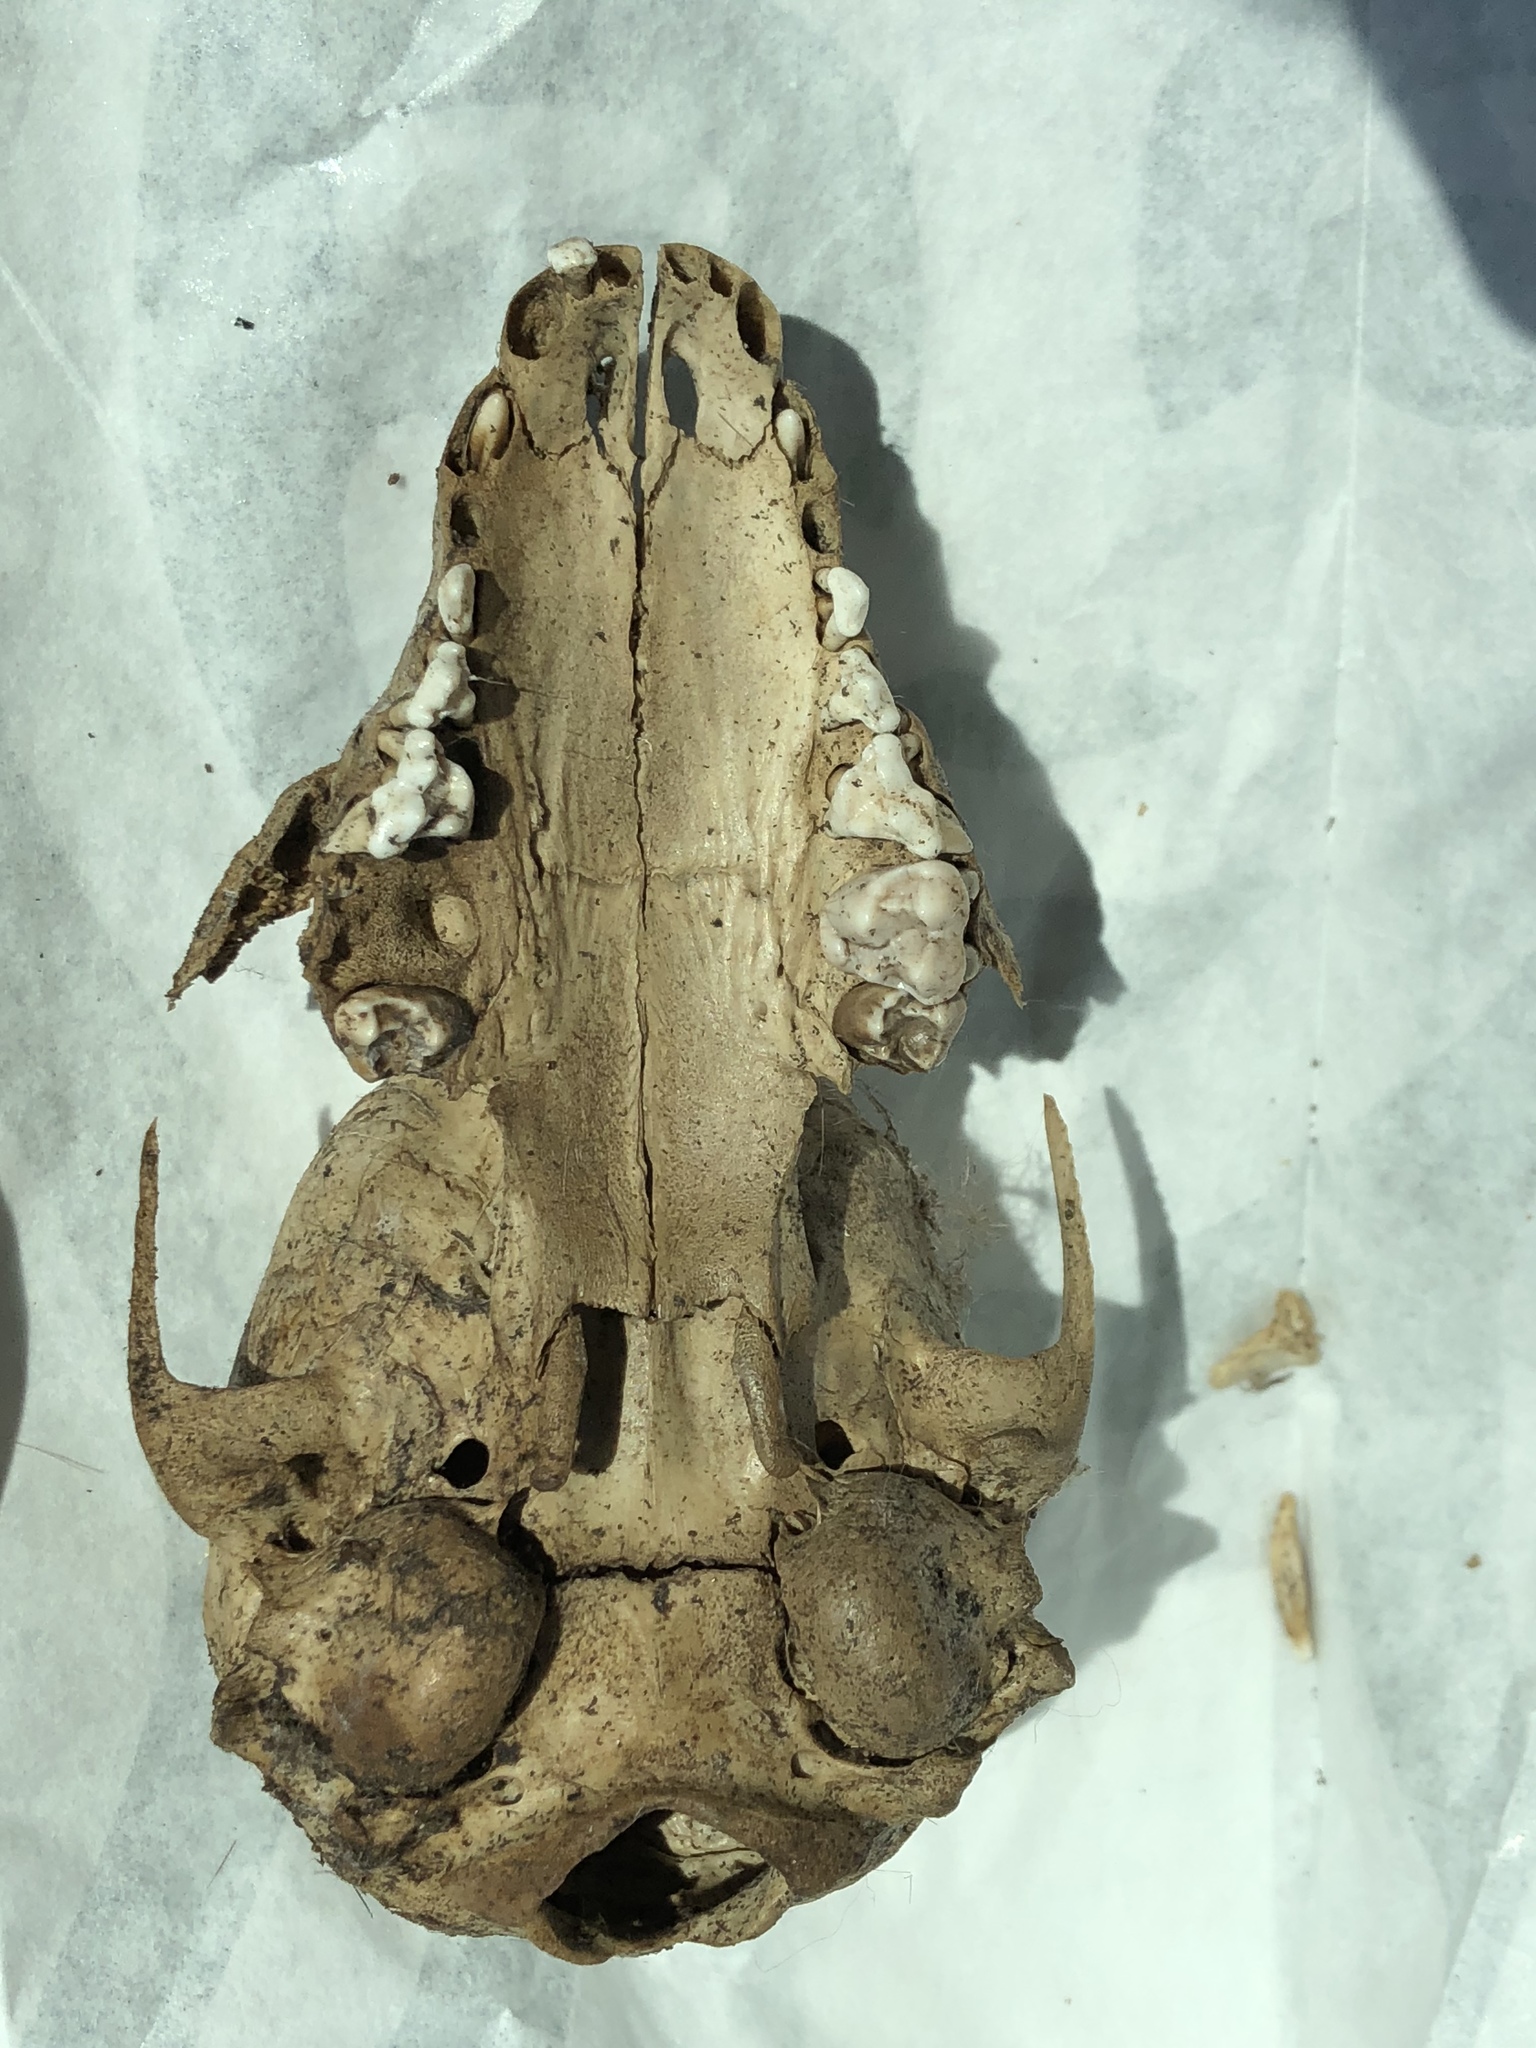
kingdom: Animalia
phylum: Chordata
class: Mammalia
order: Carnivora
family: Procyonidae
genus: Procyon
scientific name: Procyon lotor
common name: Raccoon
